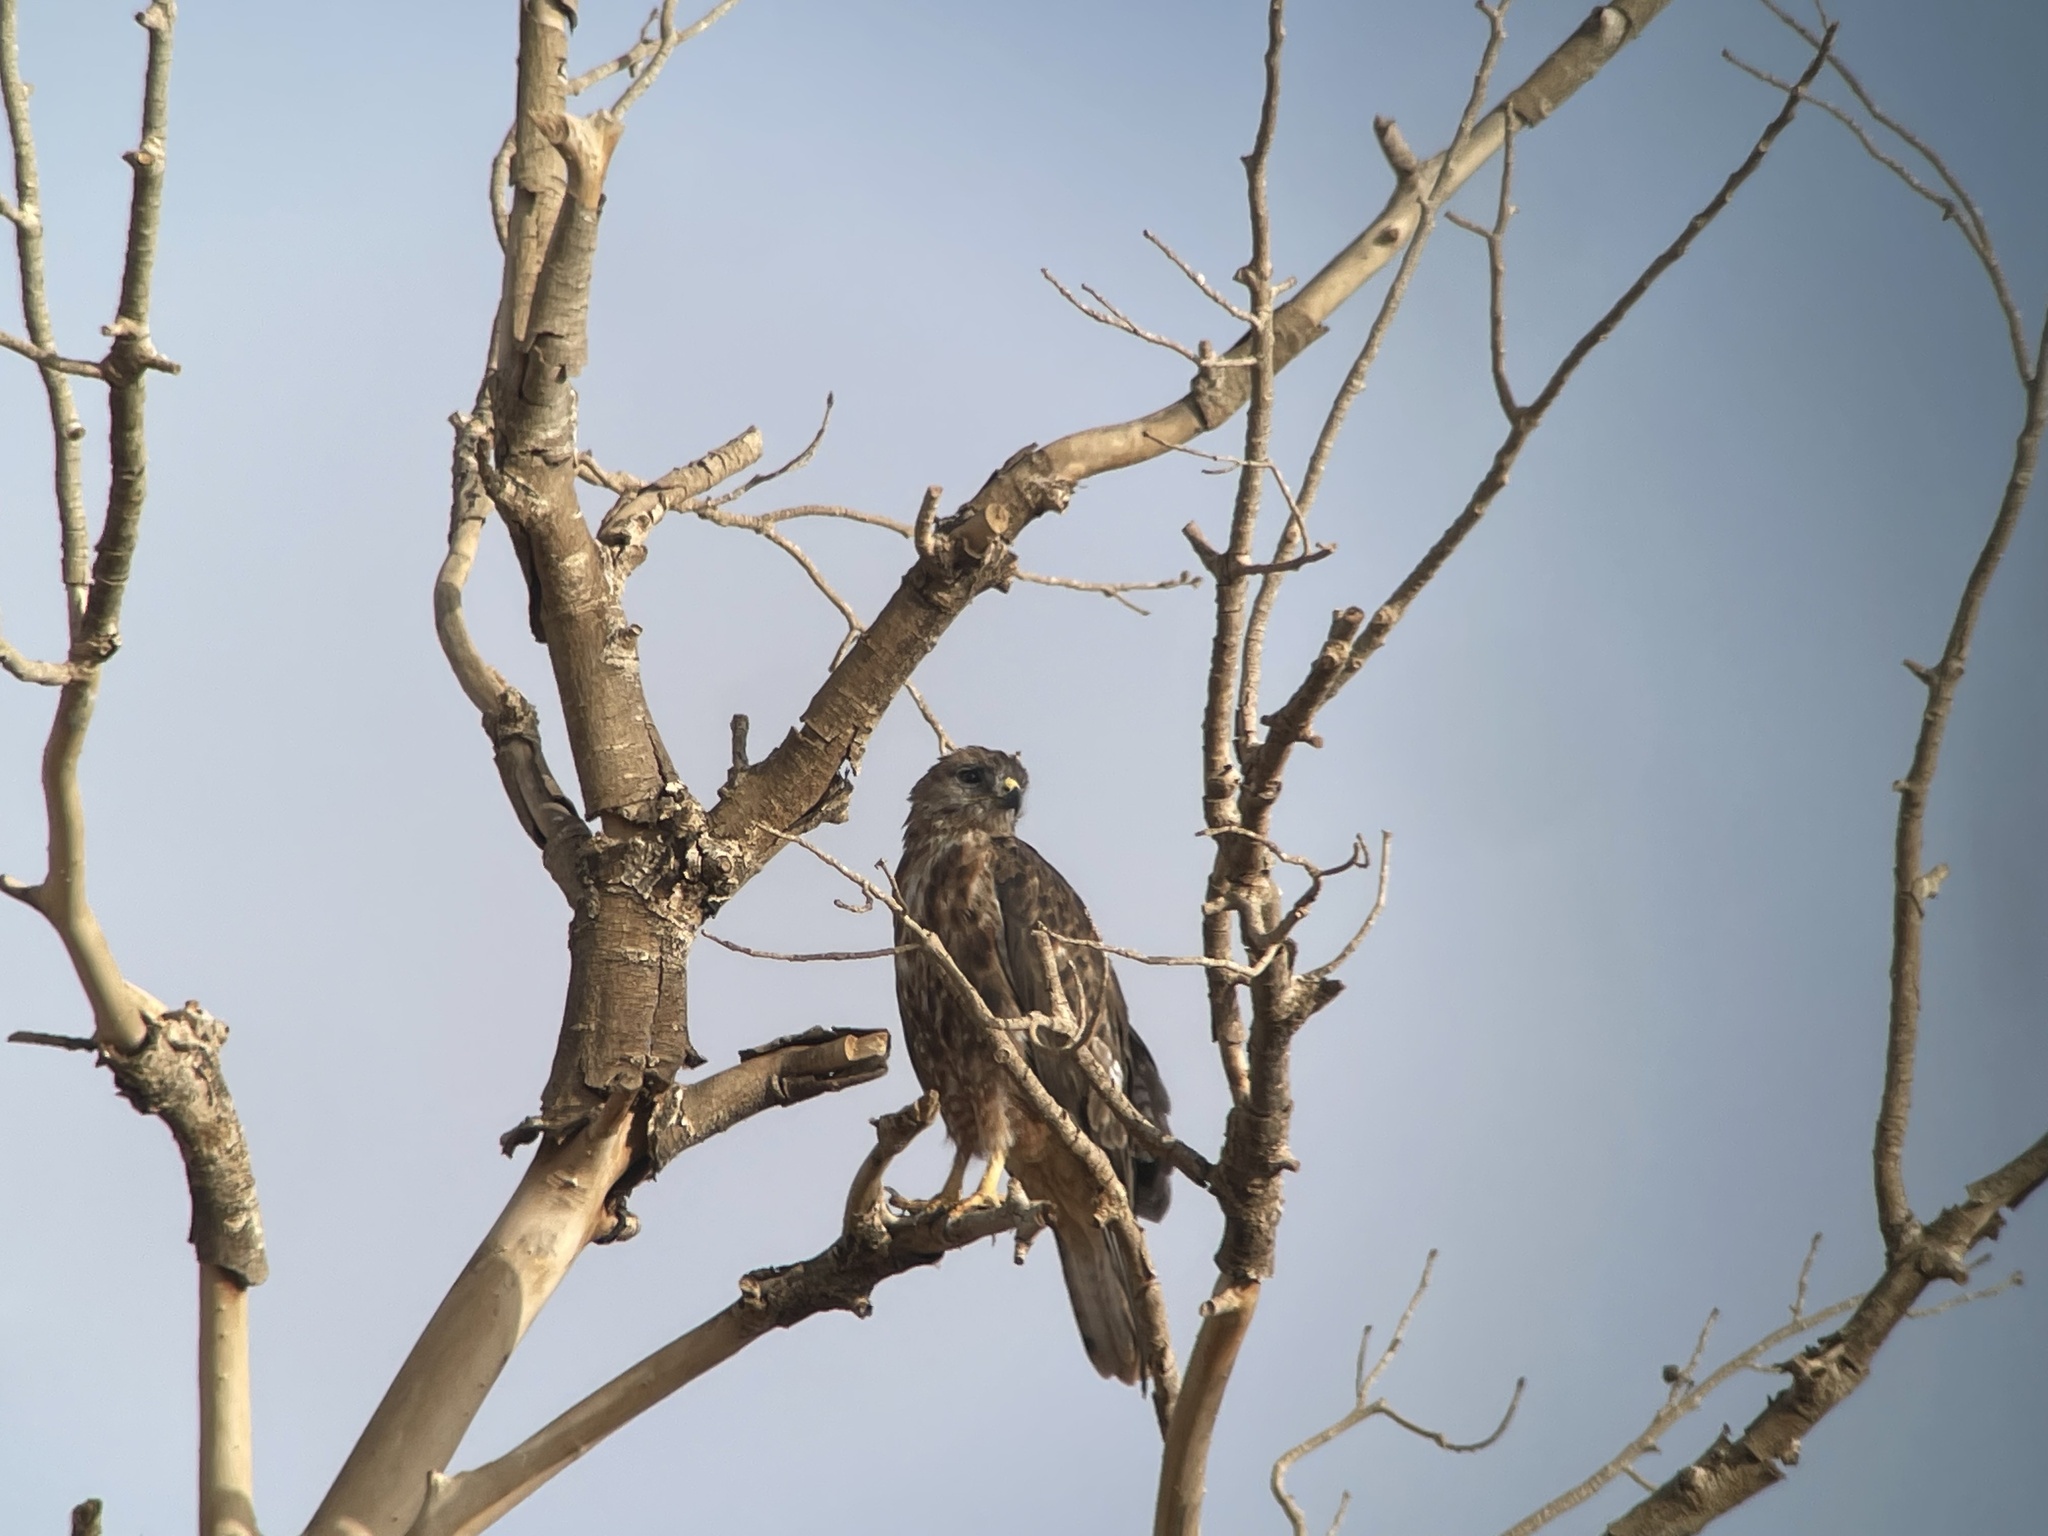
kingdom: Animalia
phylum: Chordata
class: Aves
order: Accipitriformes
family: Accipitridae
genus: Buteo
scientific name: Buteo rufinus
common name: Long-legged buzzard
